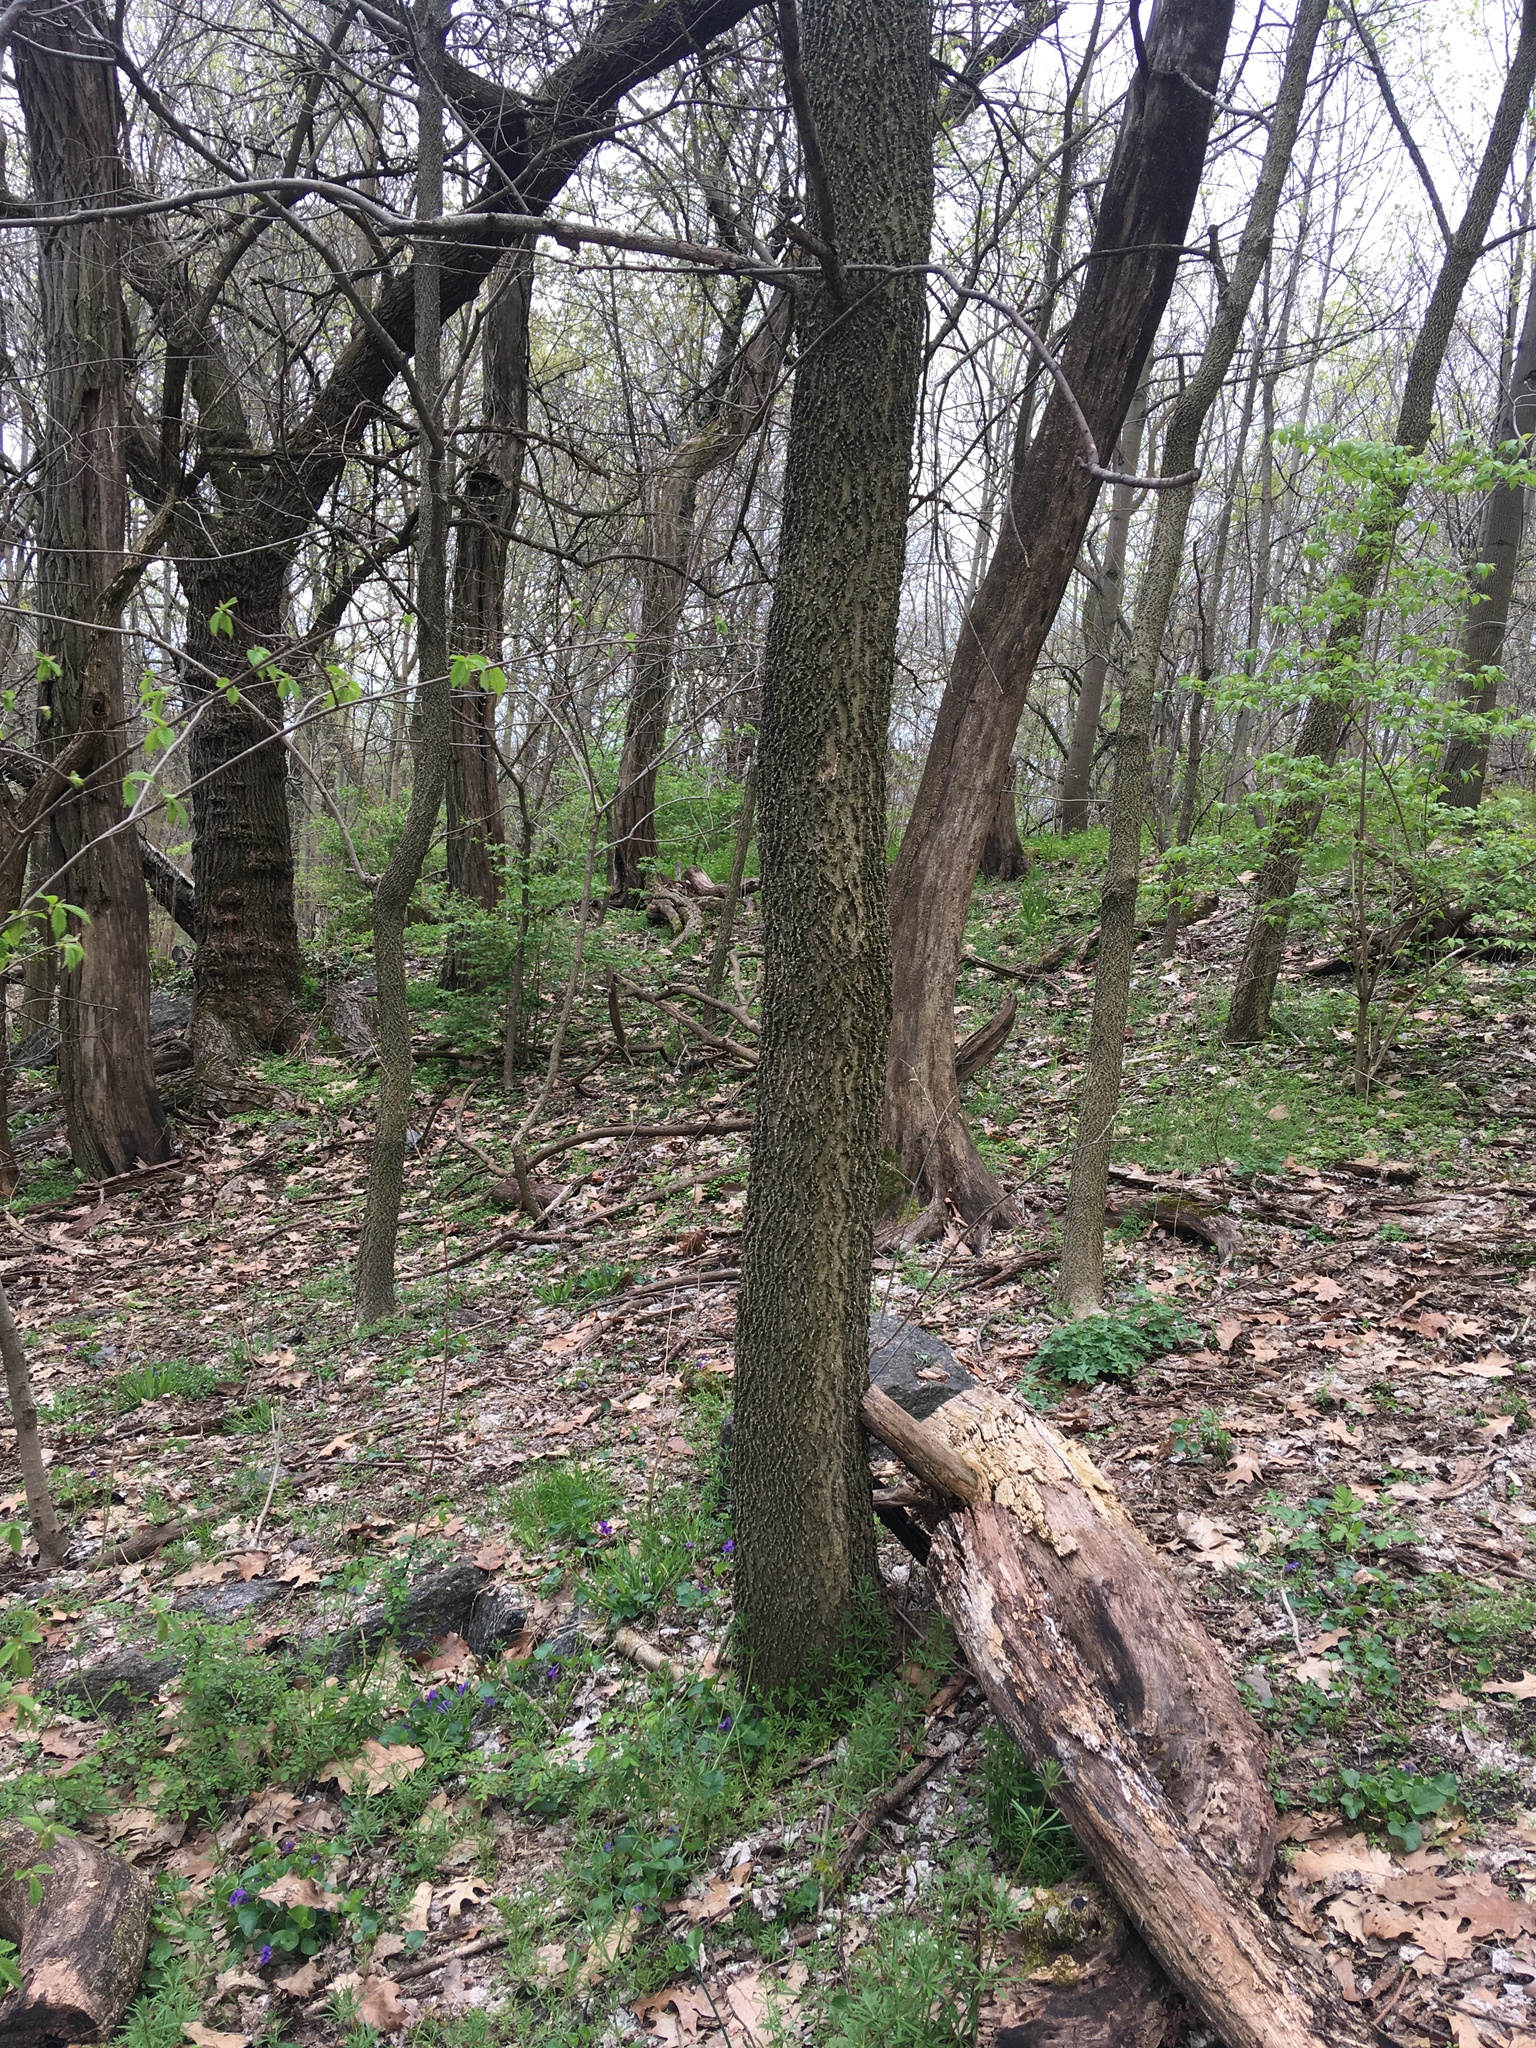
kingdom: Plantae
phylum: Tracheophyta
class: Magnoliopsida
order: Rosales
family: Cannabaceae
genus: Celtis
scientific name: Celtis occidentalis
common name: Common hackberry
